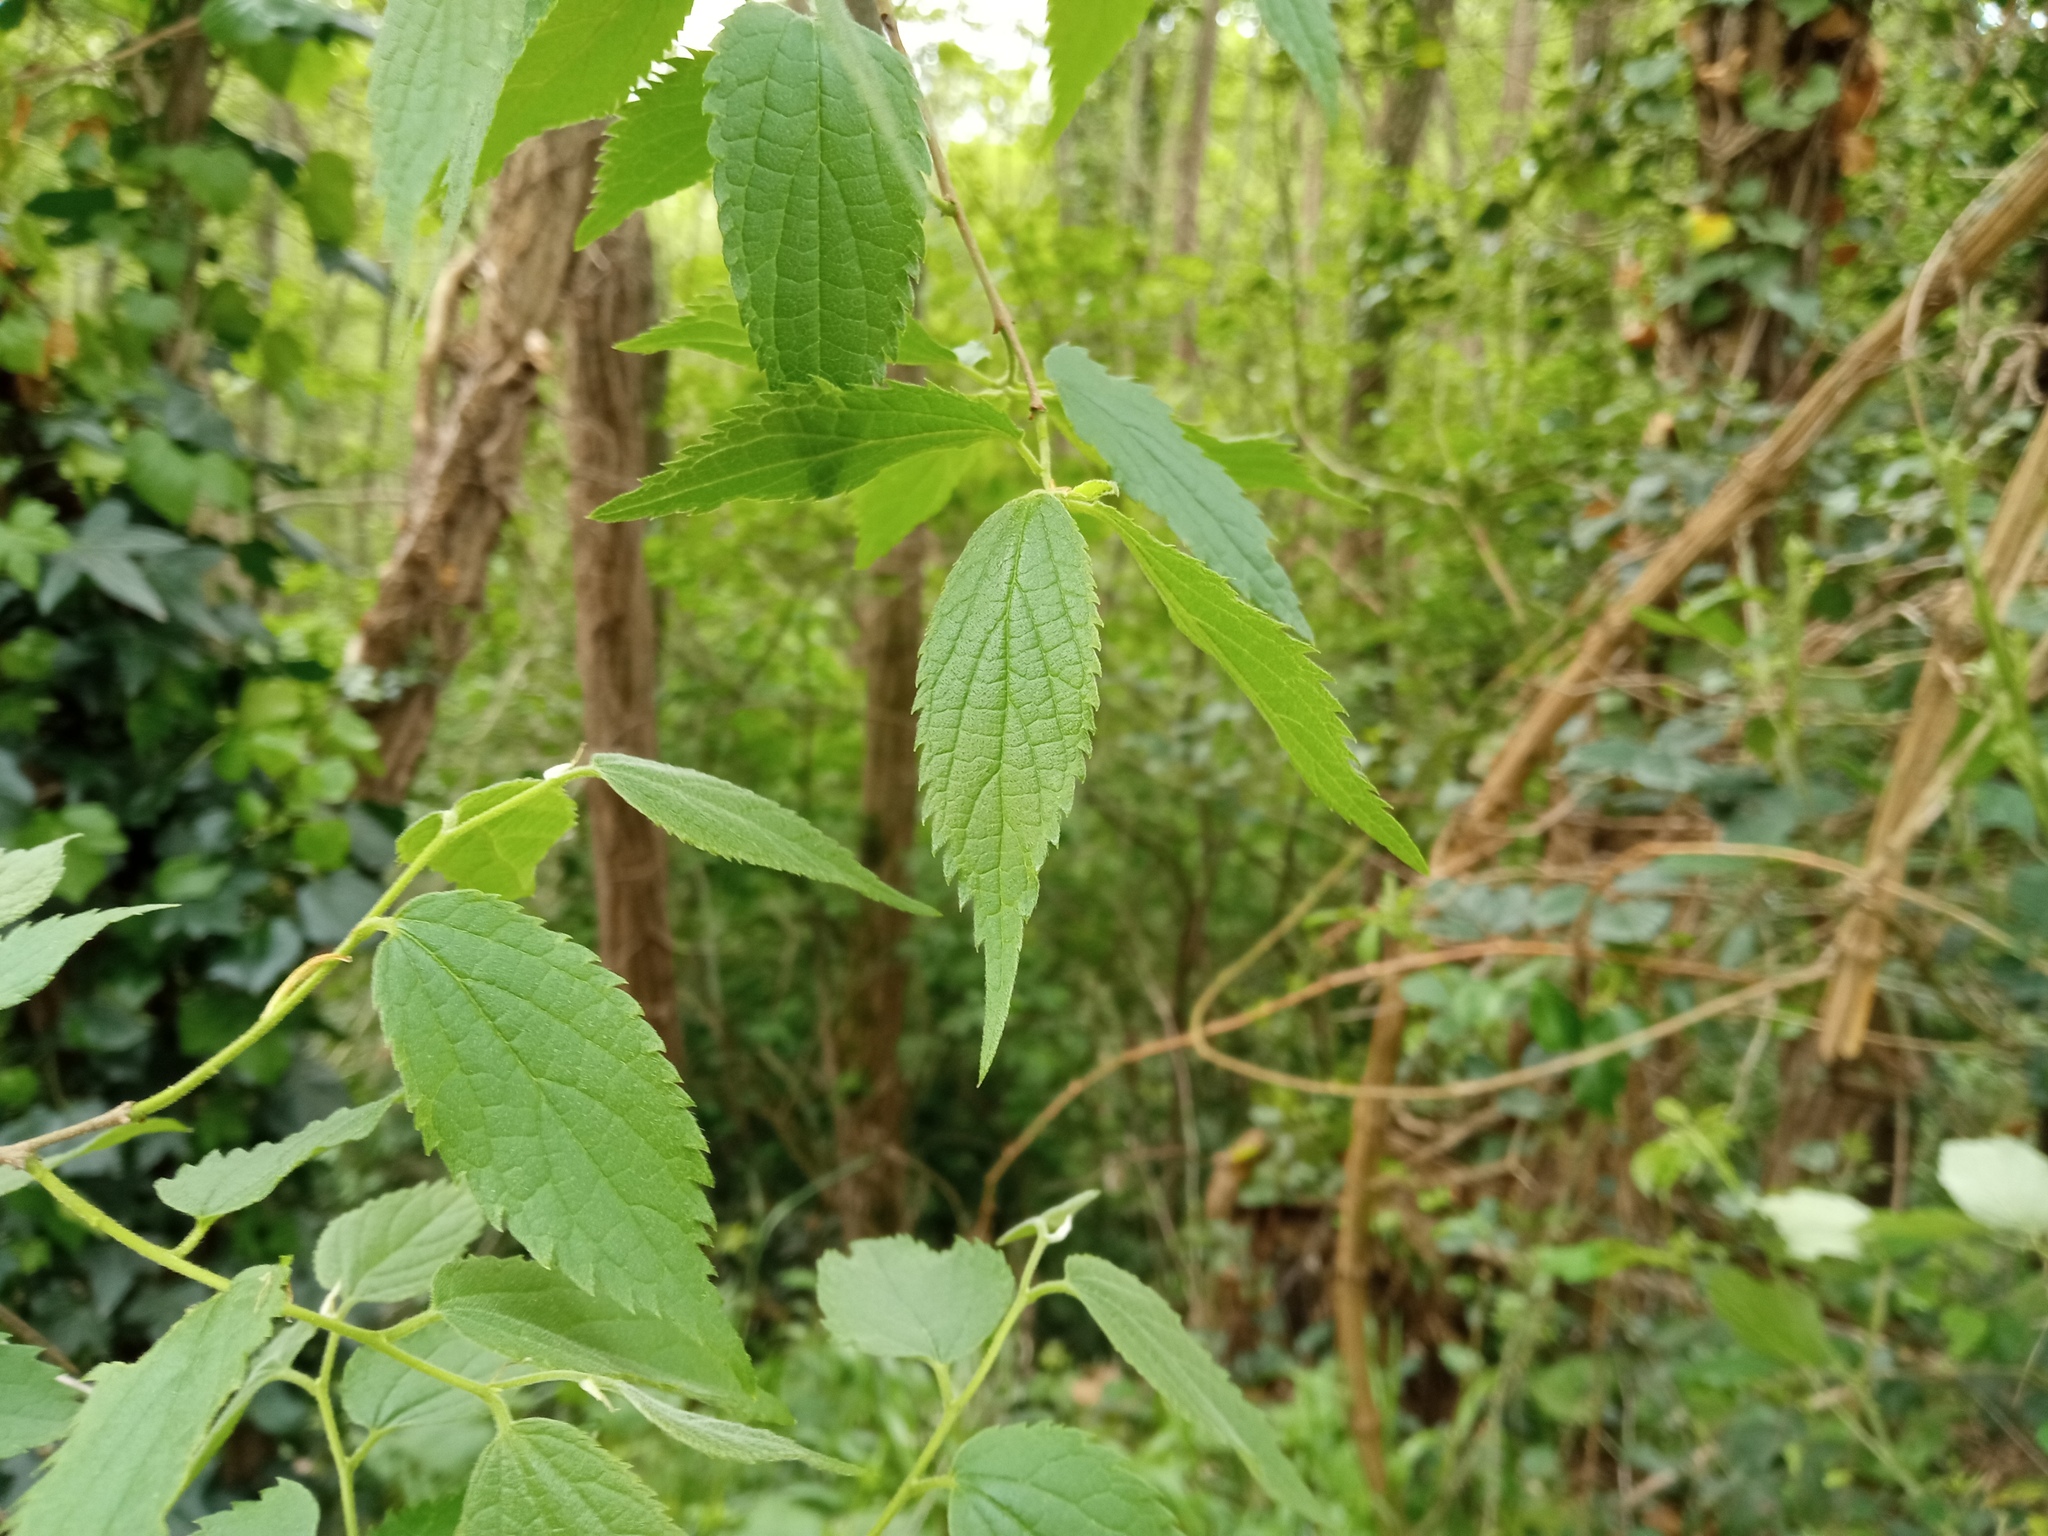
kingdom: Plantae
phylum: Tracheophyta
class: Magnoliopsida
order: Rosales
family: Cannabaceae
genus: Celtis
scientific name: Celtis australis
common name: European hackberry
